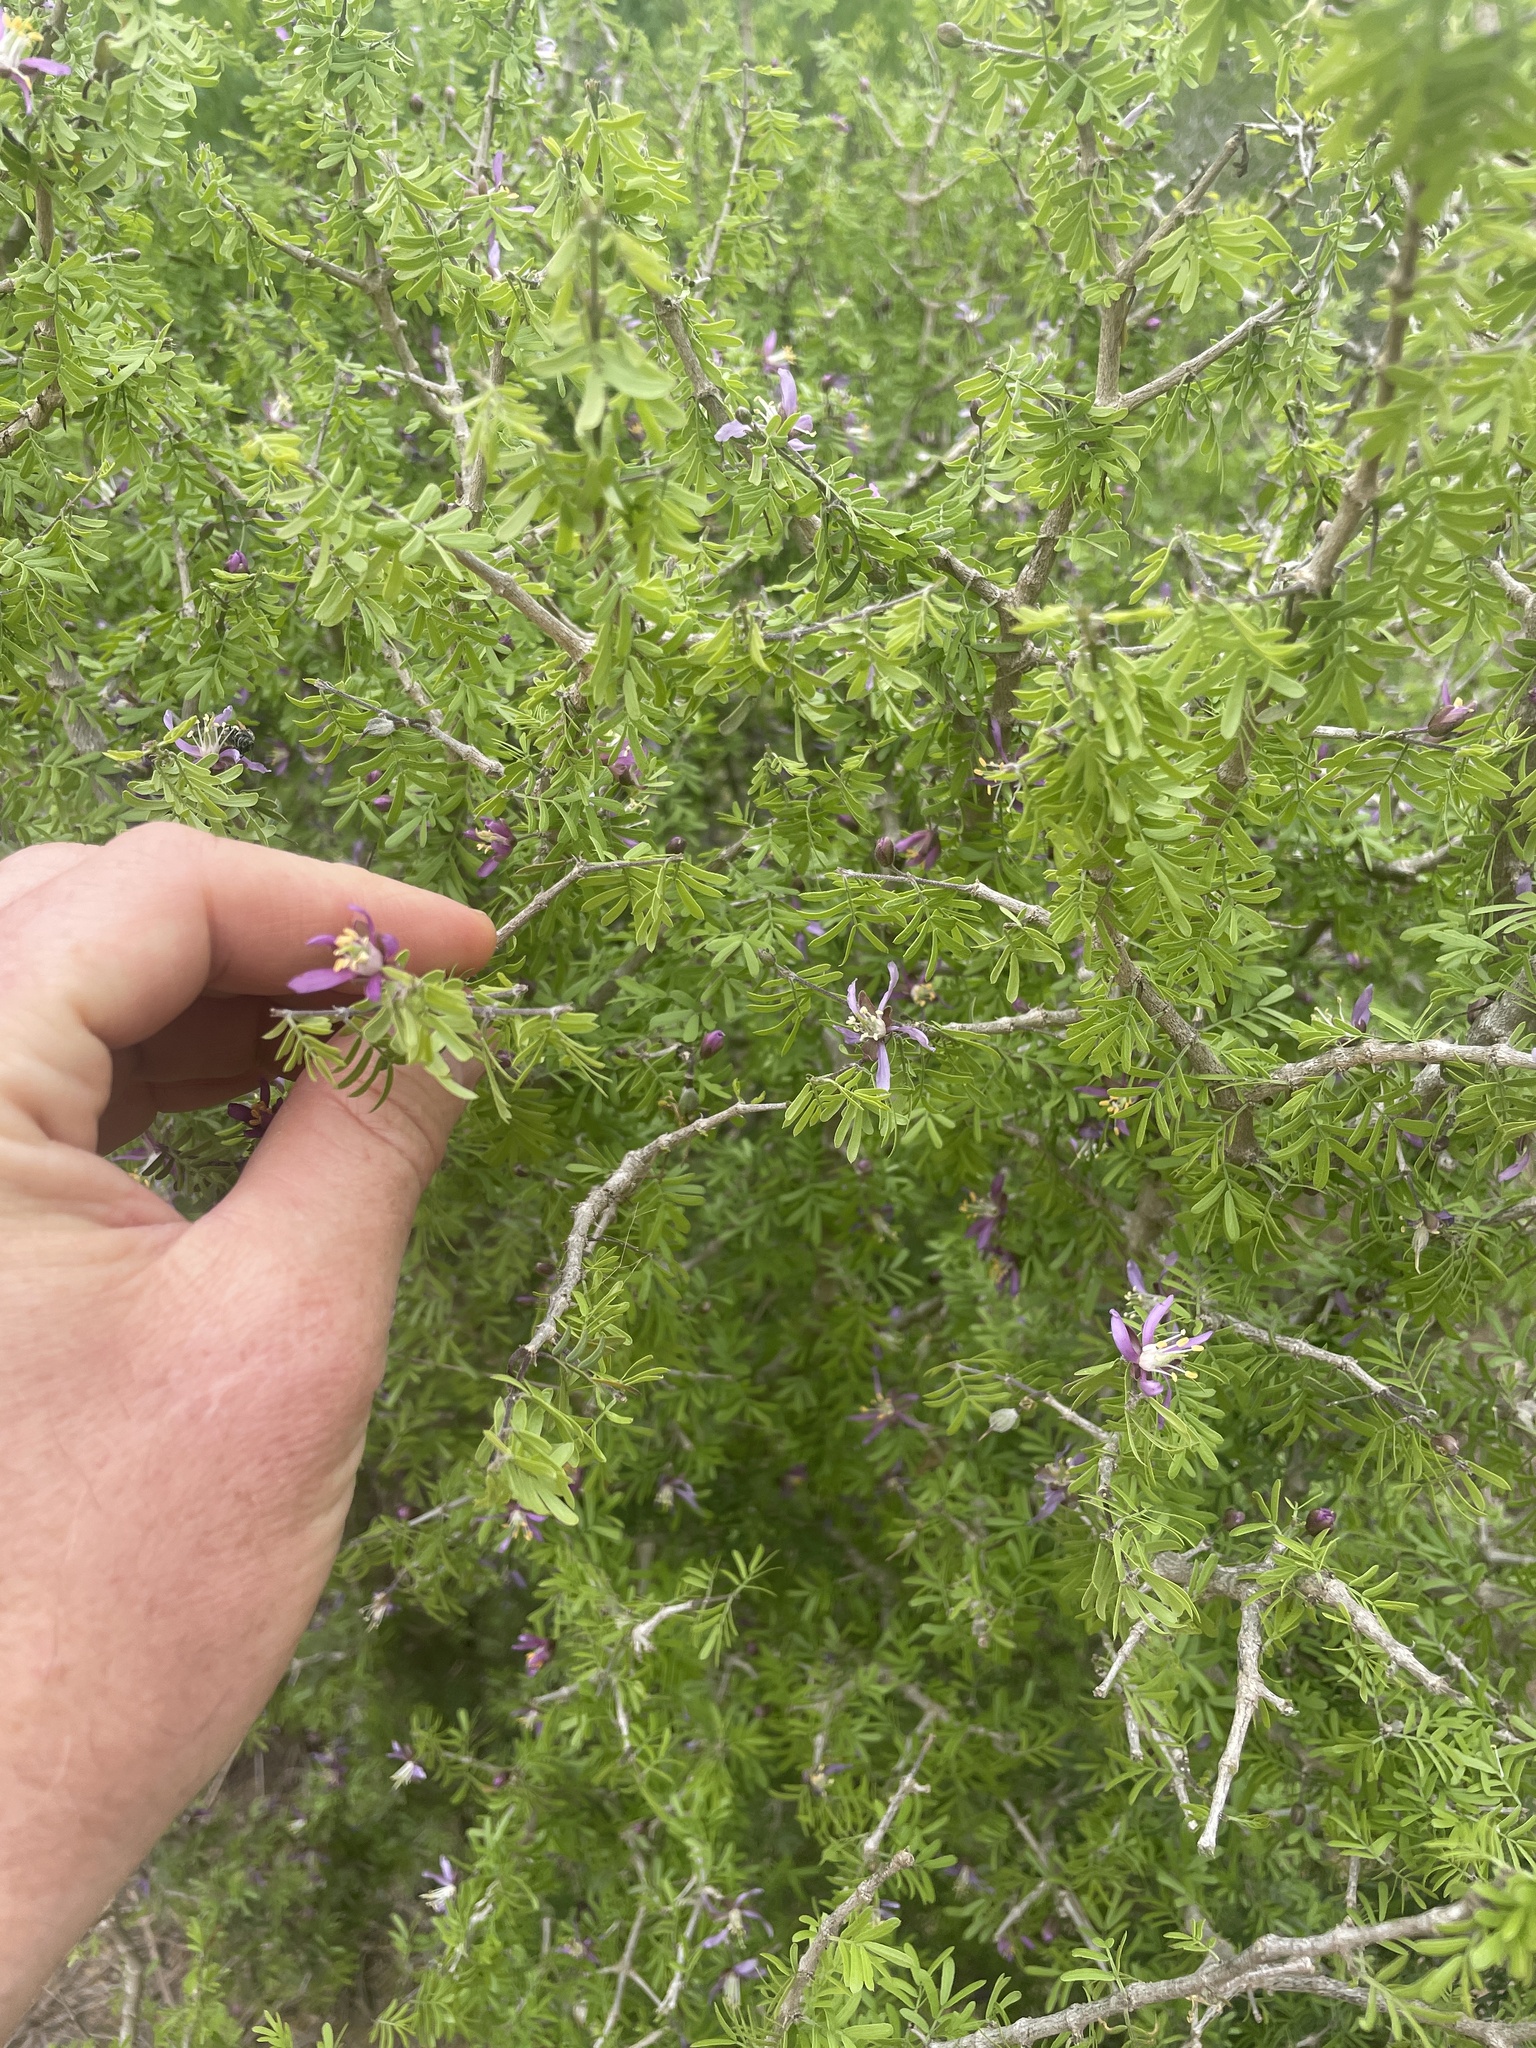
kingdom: Plantae
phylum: Tracheophyta
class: Magnoliopsida
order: Zygophyllales
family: Zygophyllaceae
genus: Porlieria
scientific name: Porlieria angustifolia
